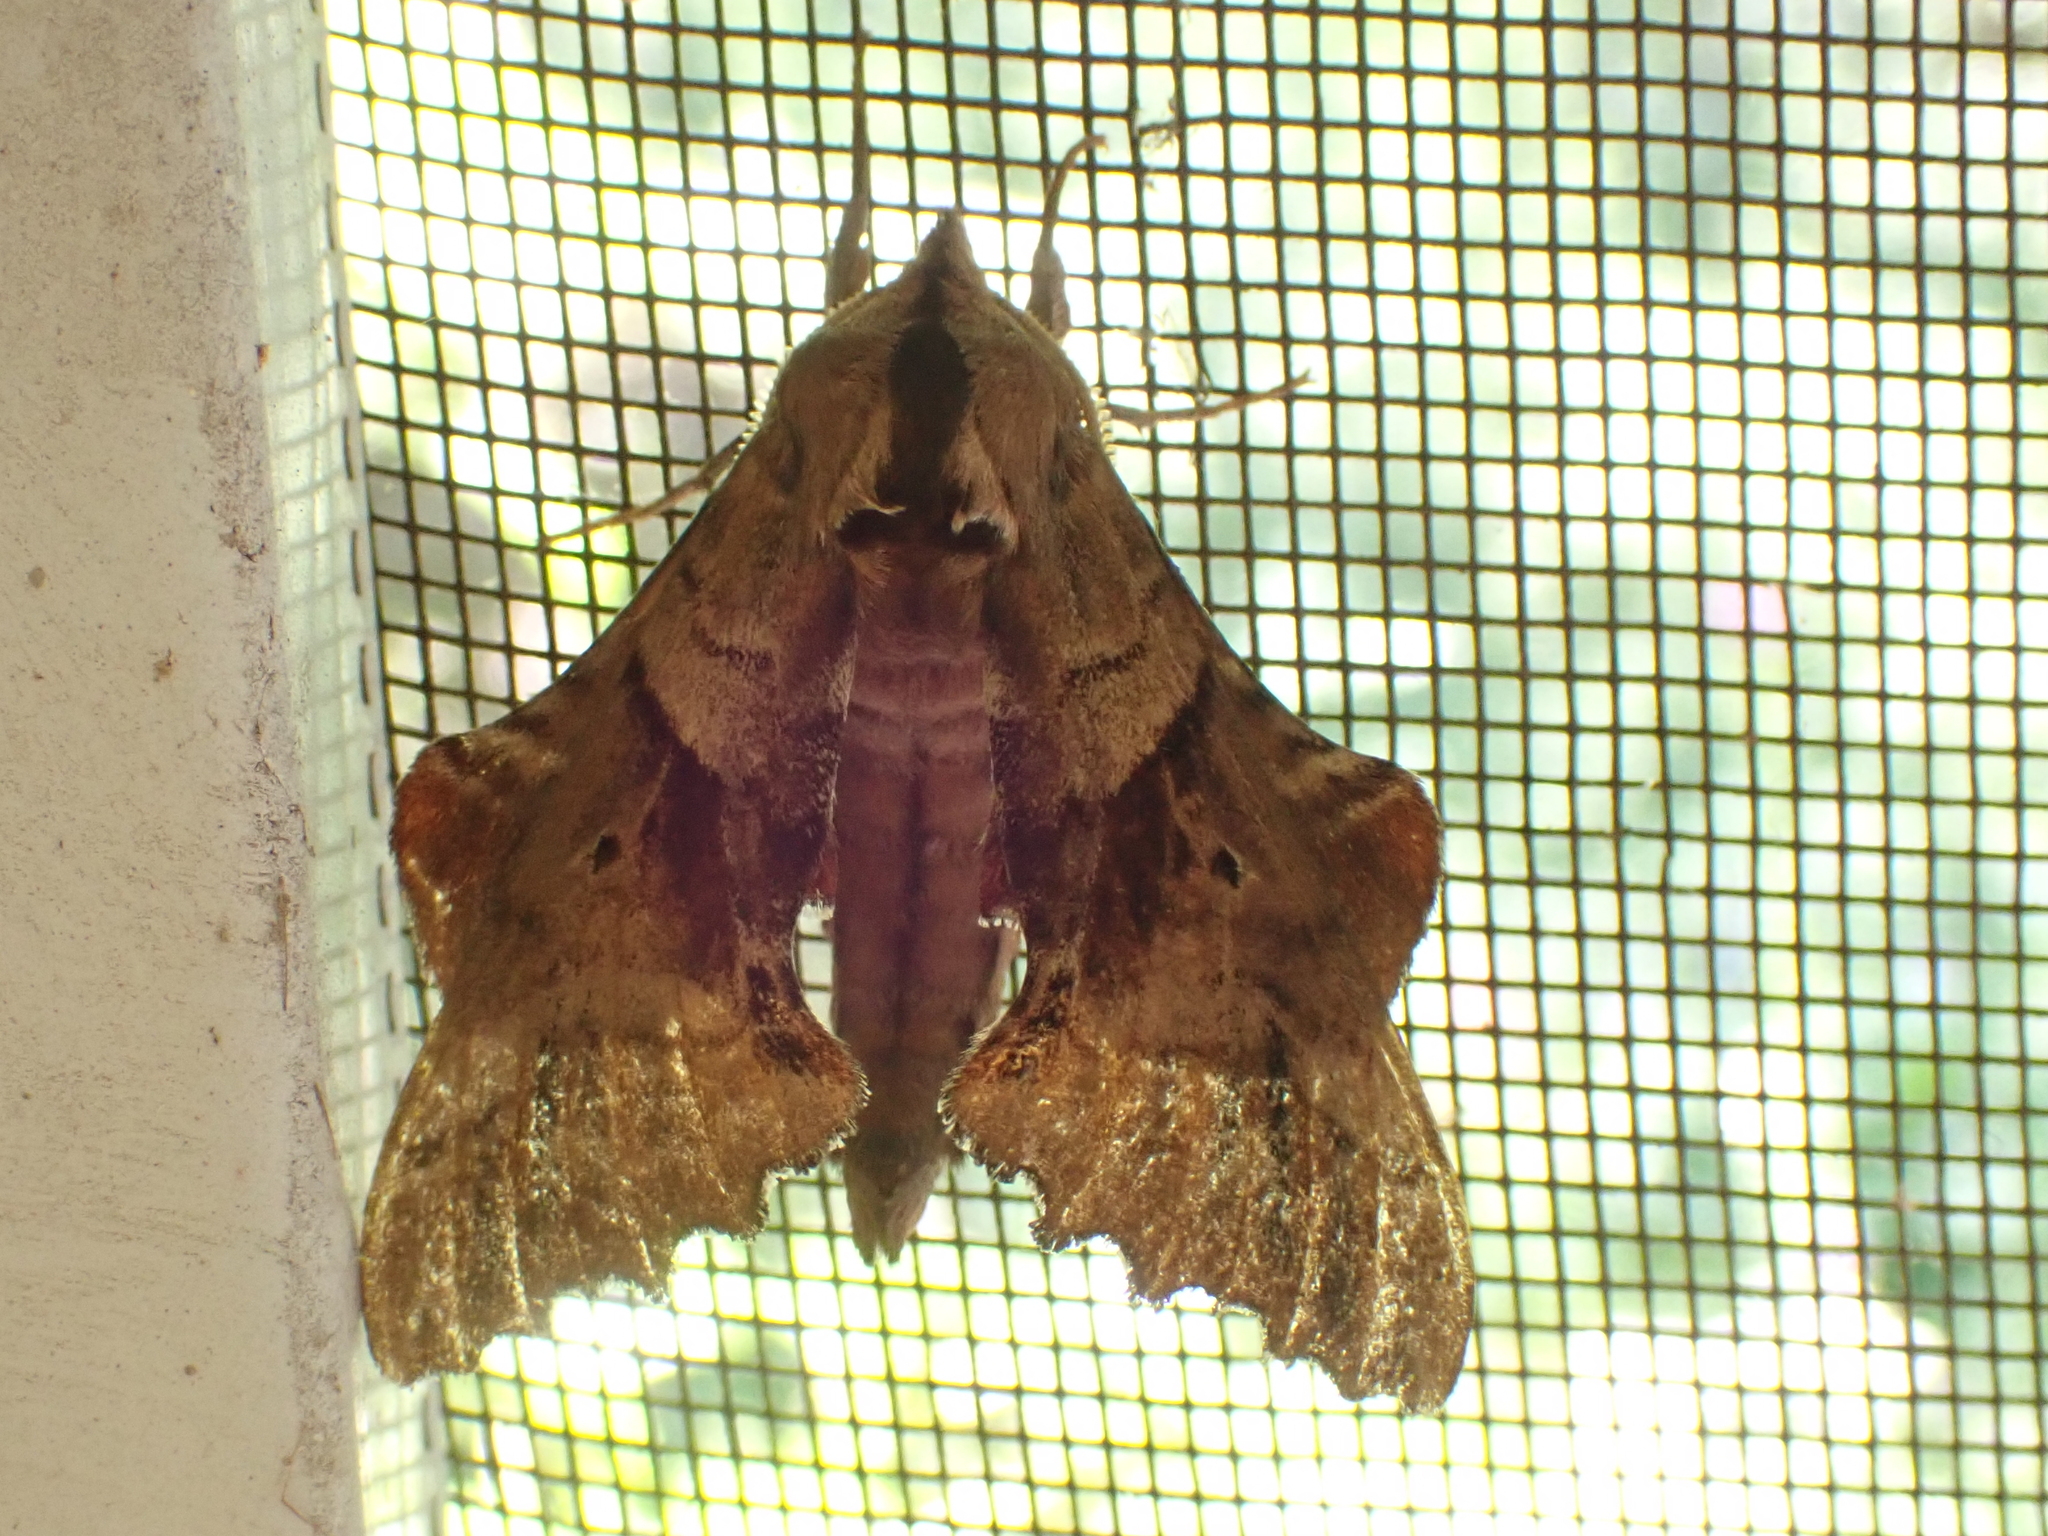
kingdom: Animalia
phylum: Arthropoda
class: Insecta
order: Lepidoptera
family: Sphingidae
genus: Paonias
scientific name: Paonias excaecata
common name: Blind-eyed sphinx
